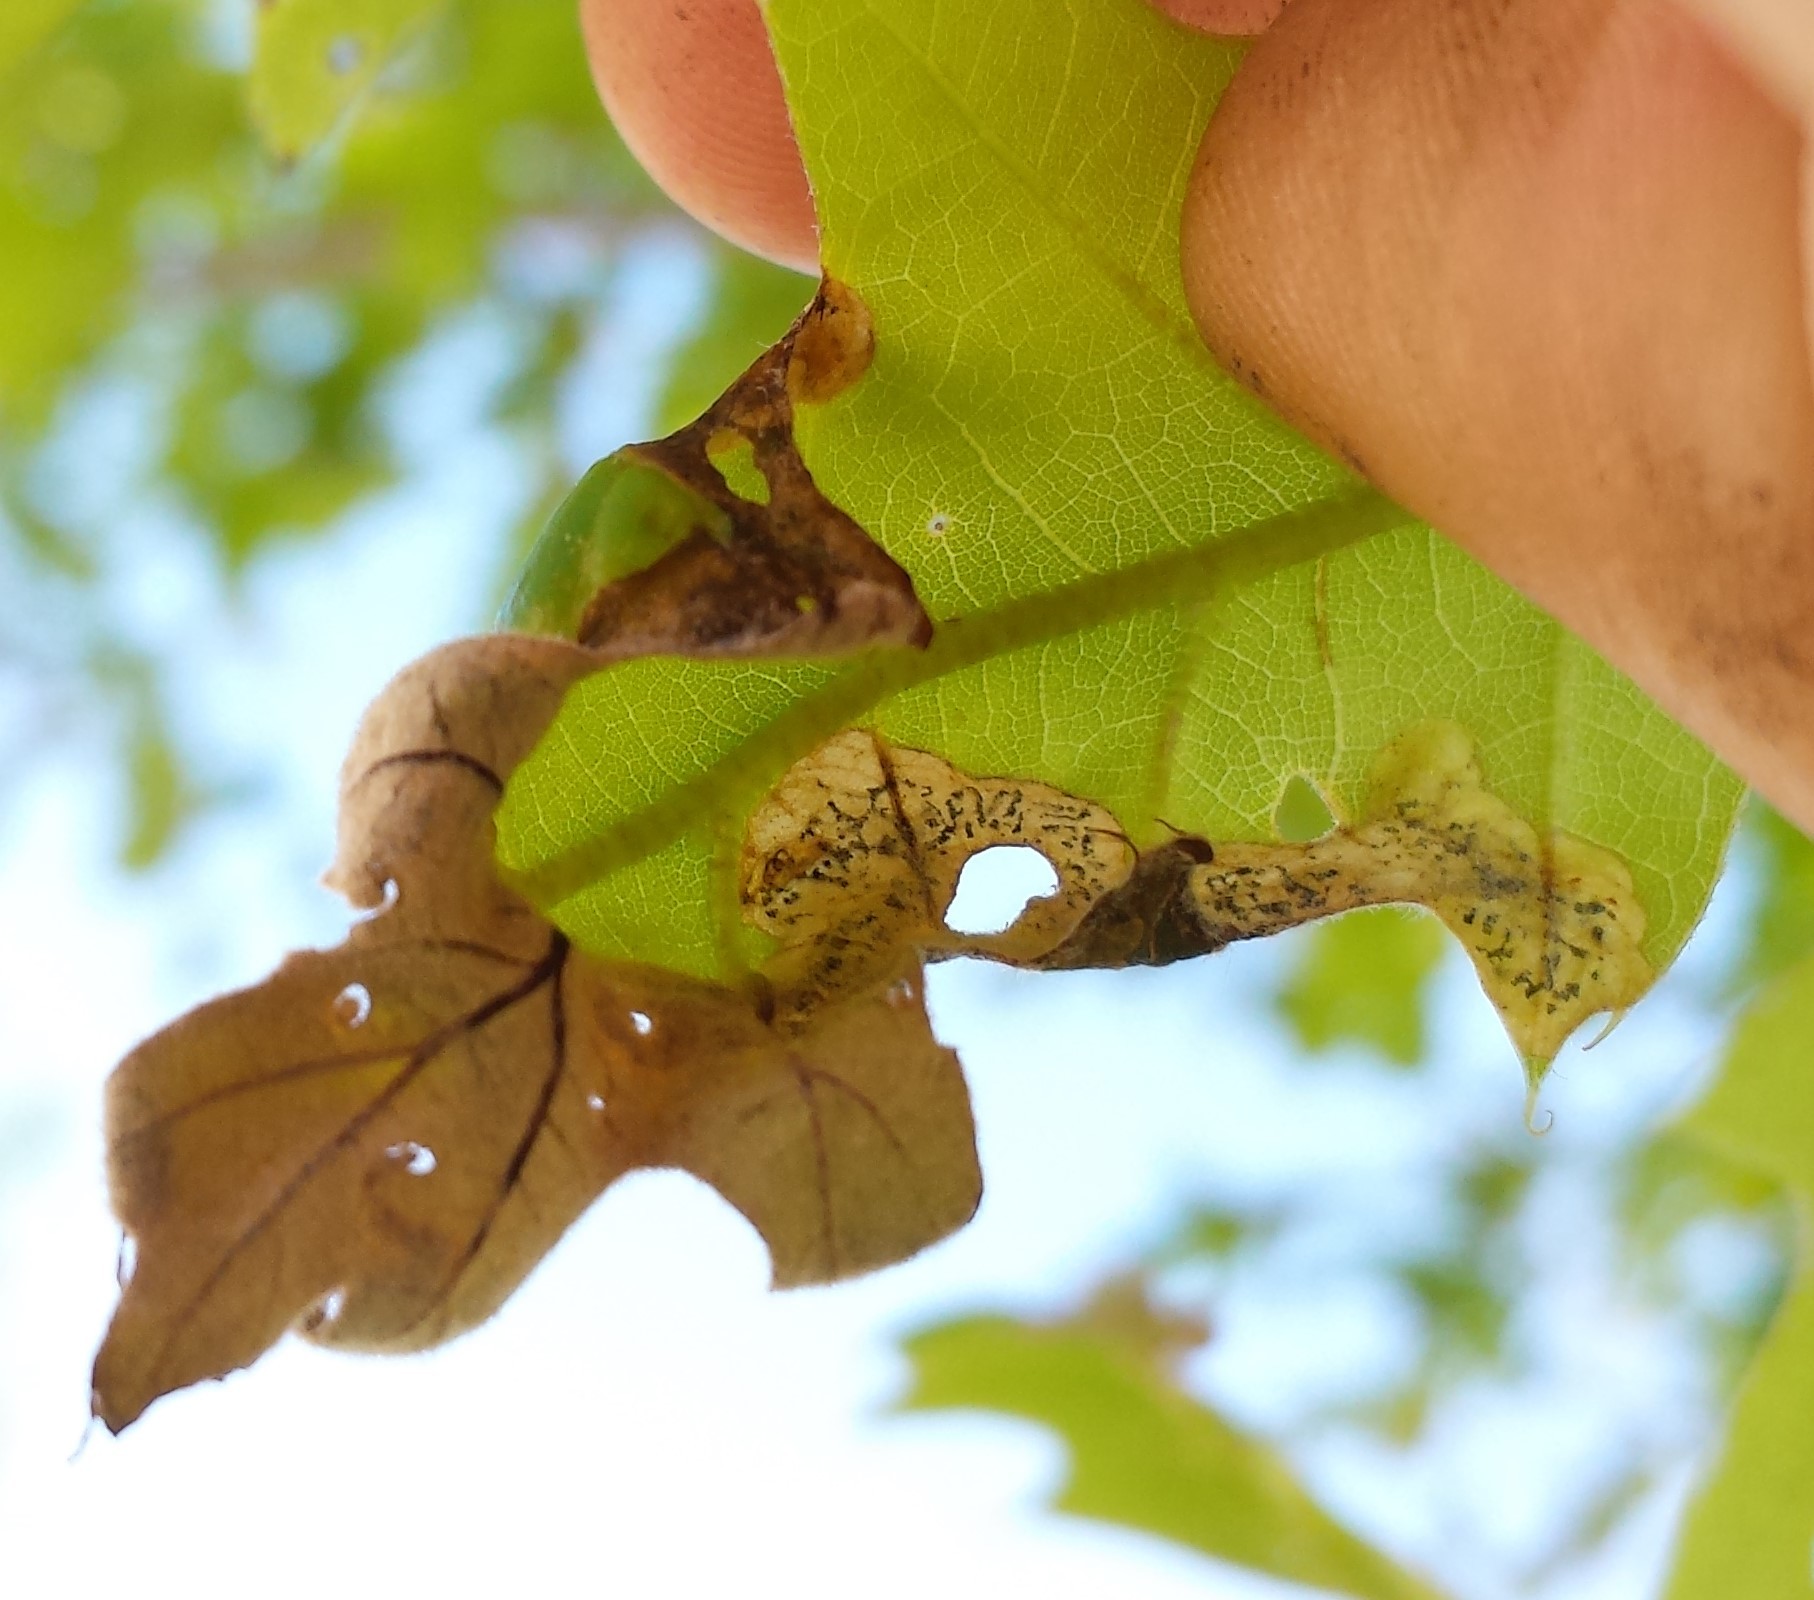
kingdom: Animalia
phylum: Arthropoda
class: Insecta
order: Diptera
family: Agromyzidae
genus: Japanagromyza
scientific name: Japanagromyza viridula
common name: Oak shothole leafminer
